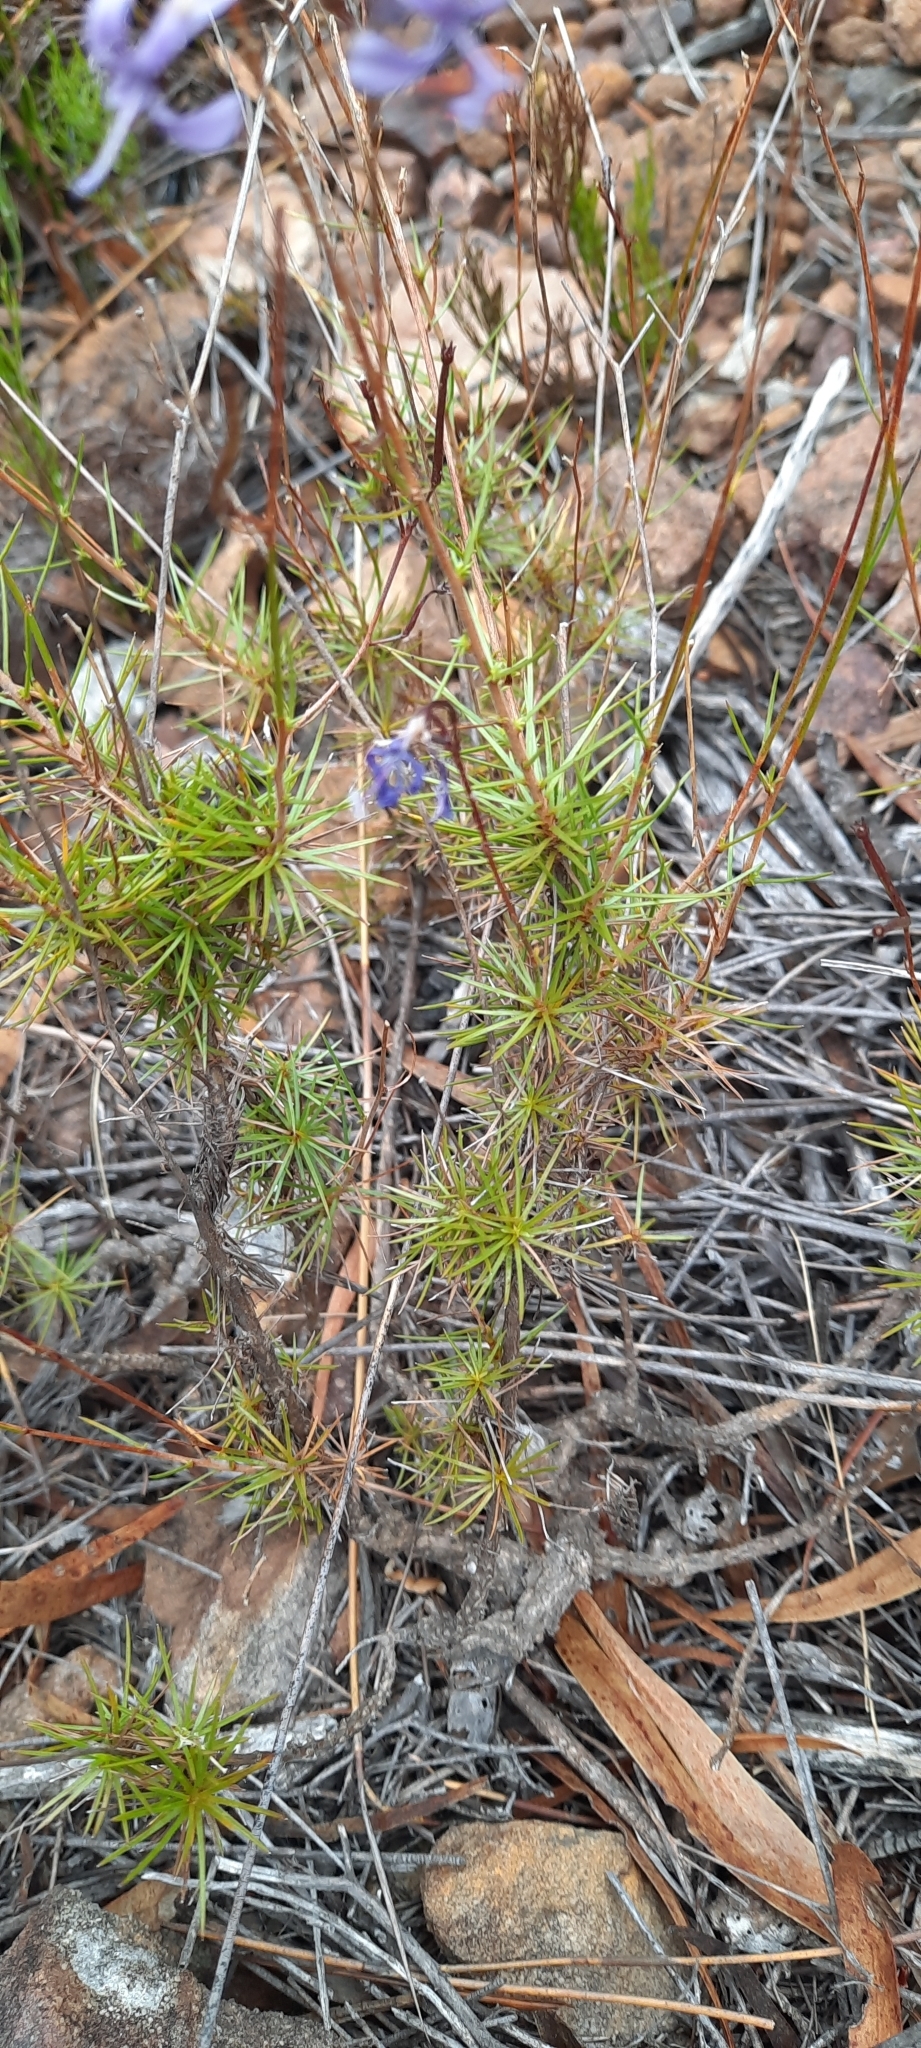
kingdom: Plantae
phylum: Tracheophyta
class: Magnoliopsida
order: Asterales
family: Campanulaceae
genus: Prismatocarpus
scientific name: Prismatocarpus diffusus
